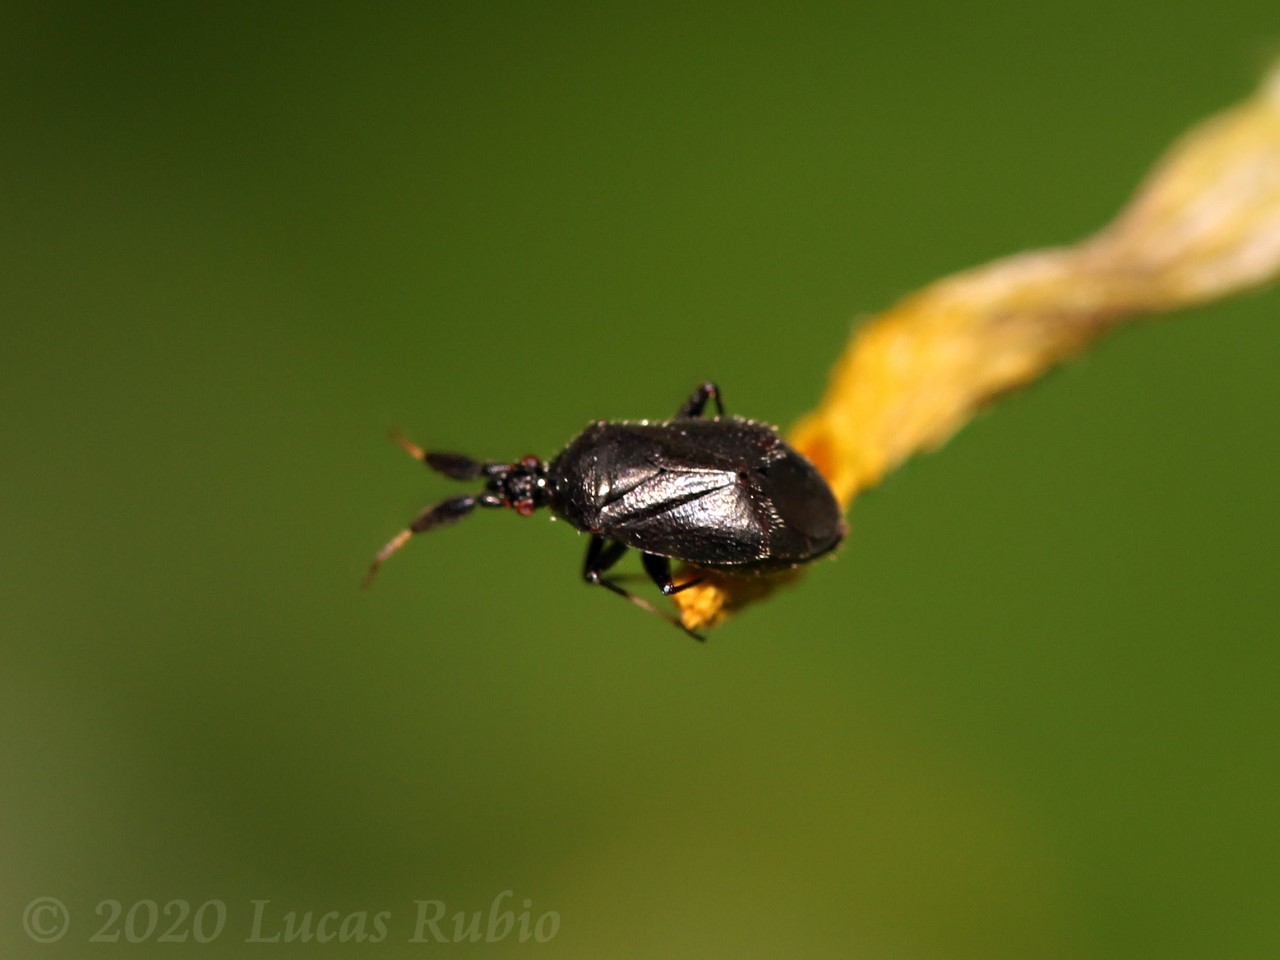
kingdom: Animalia
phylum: Arthropoda
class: Insecta
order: Hemiptera
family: Miridae
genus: Bergmiris
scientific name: Bergmiris egregius
